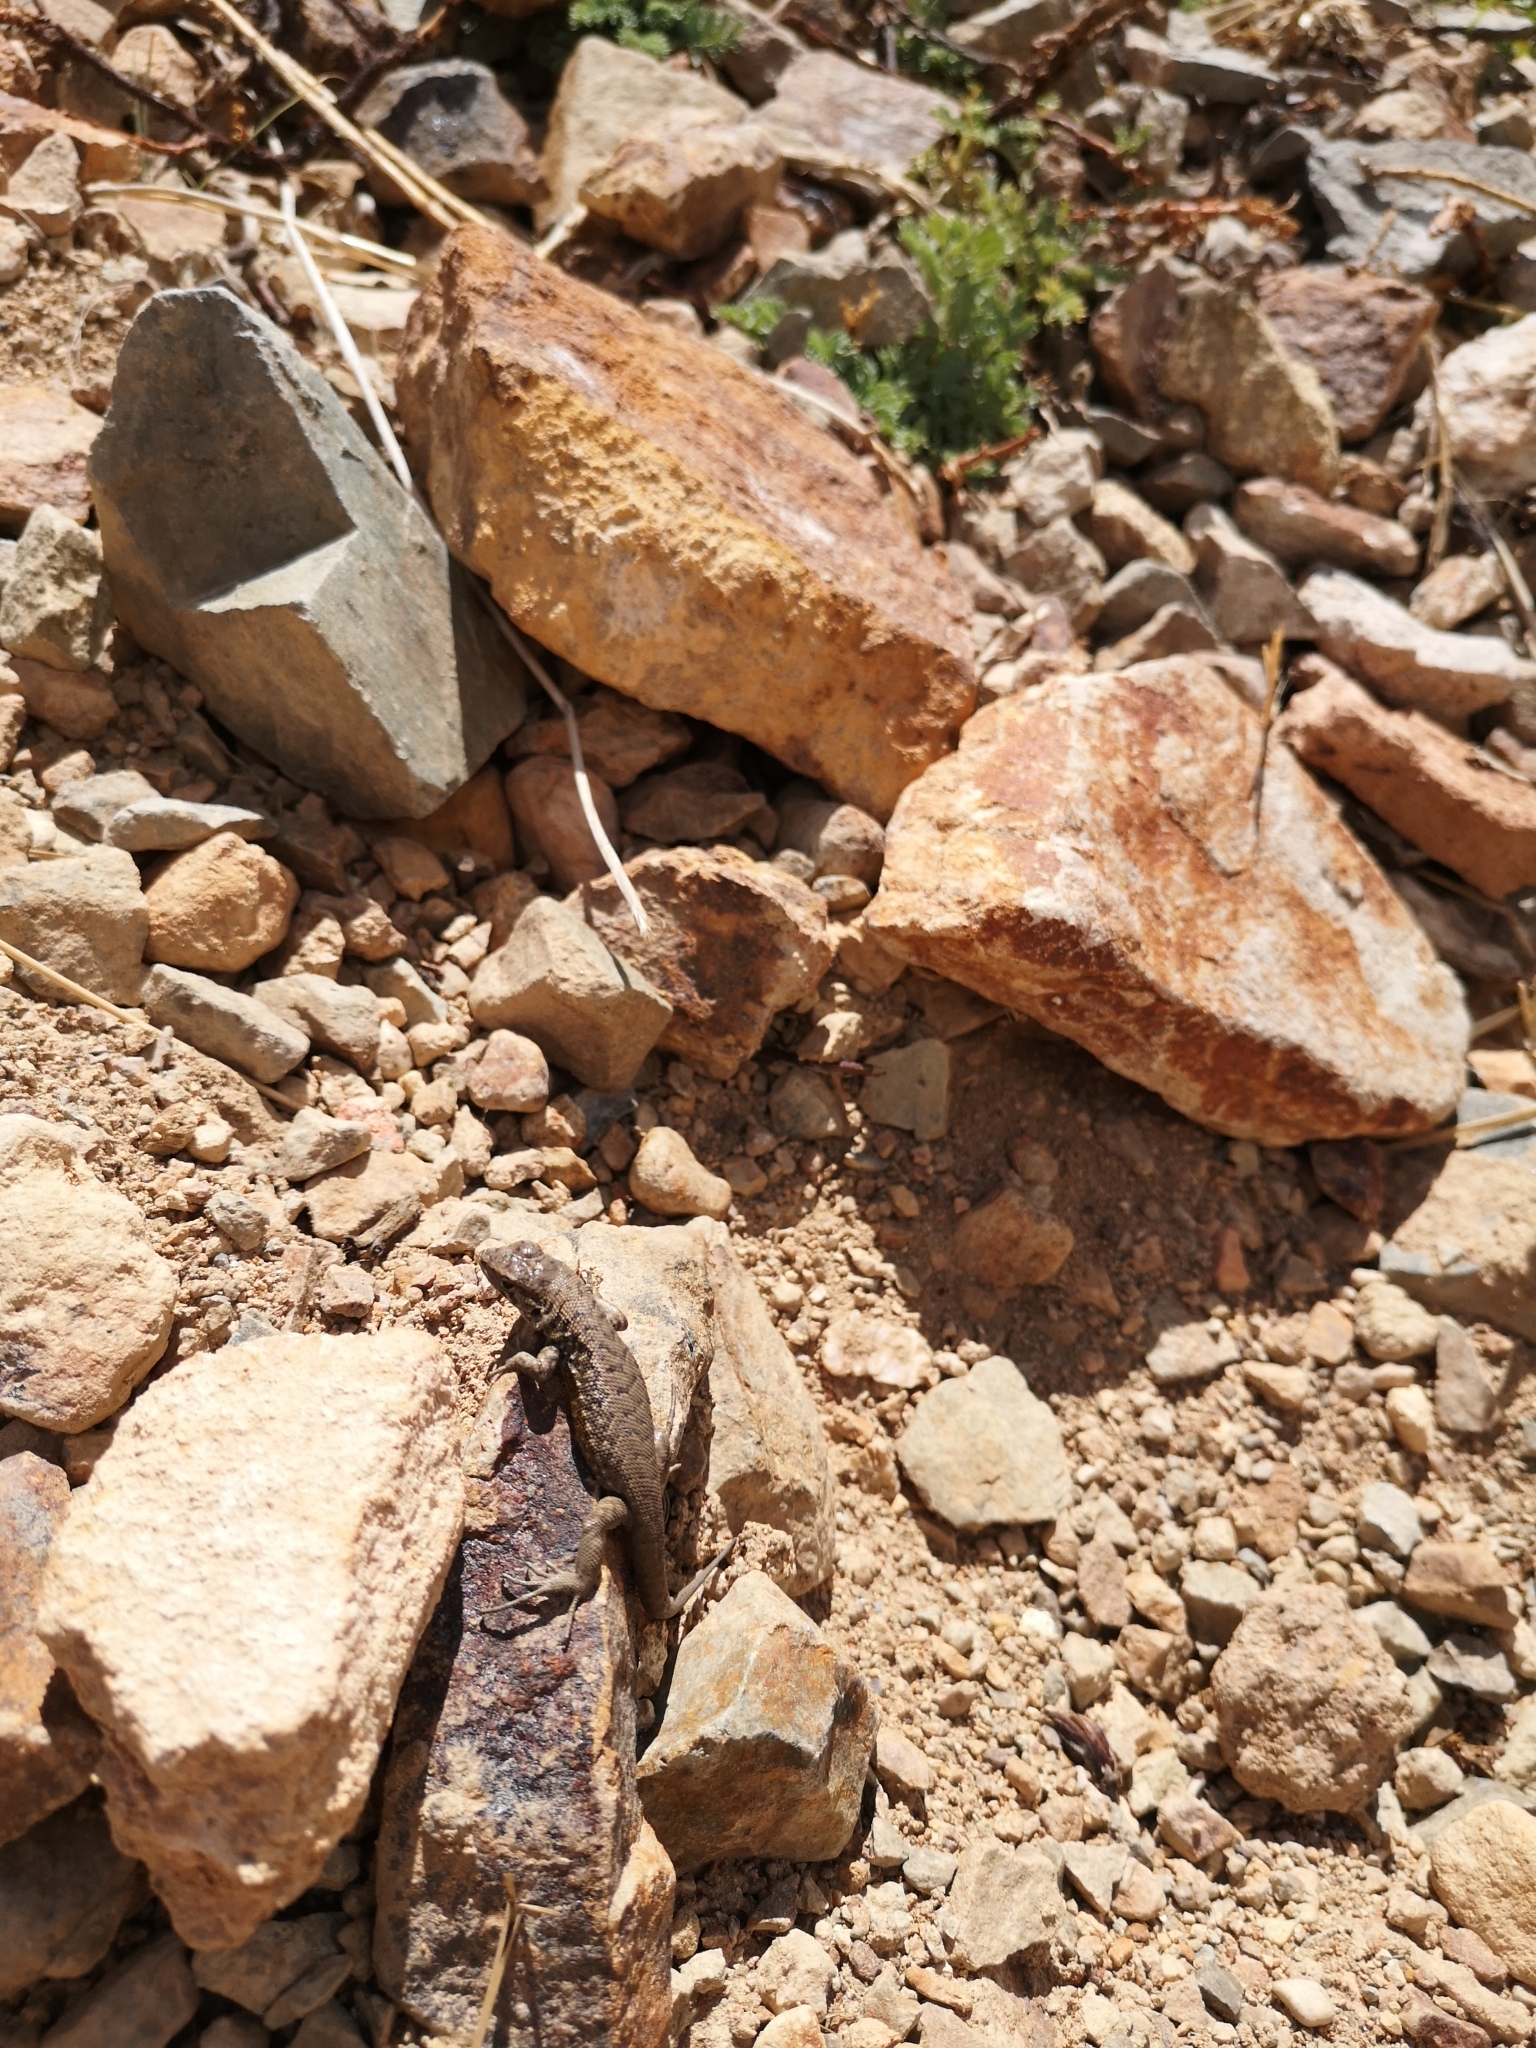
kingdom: Animalia
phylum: Chordata
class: Squamata
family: Liolaemidae
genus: Liolaemus
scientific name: Liolaemus monticola
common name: Peak tree iguana
